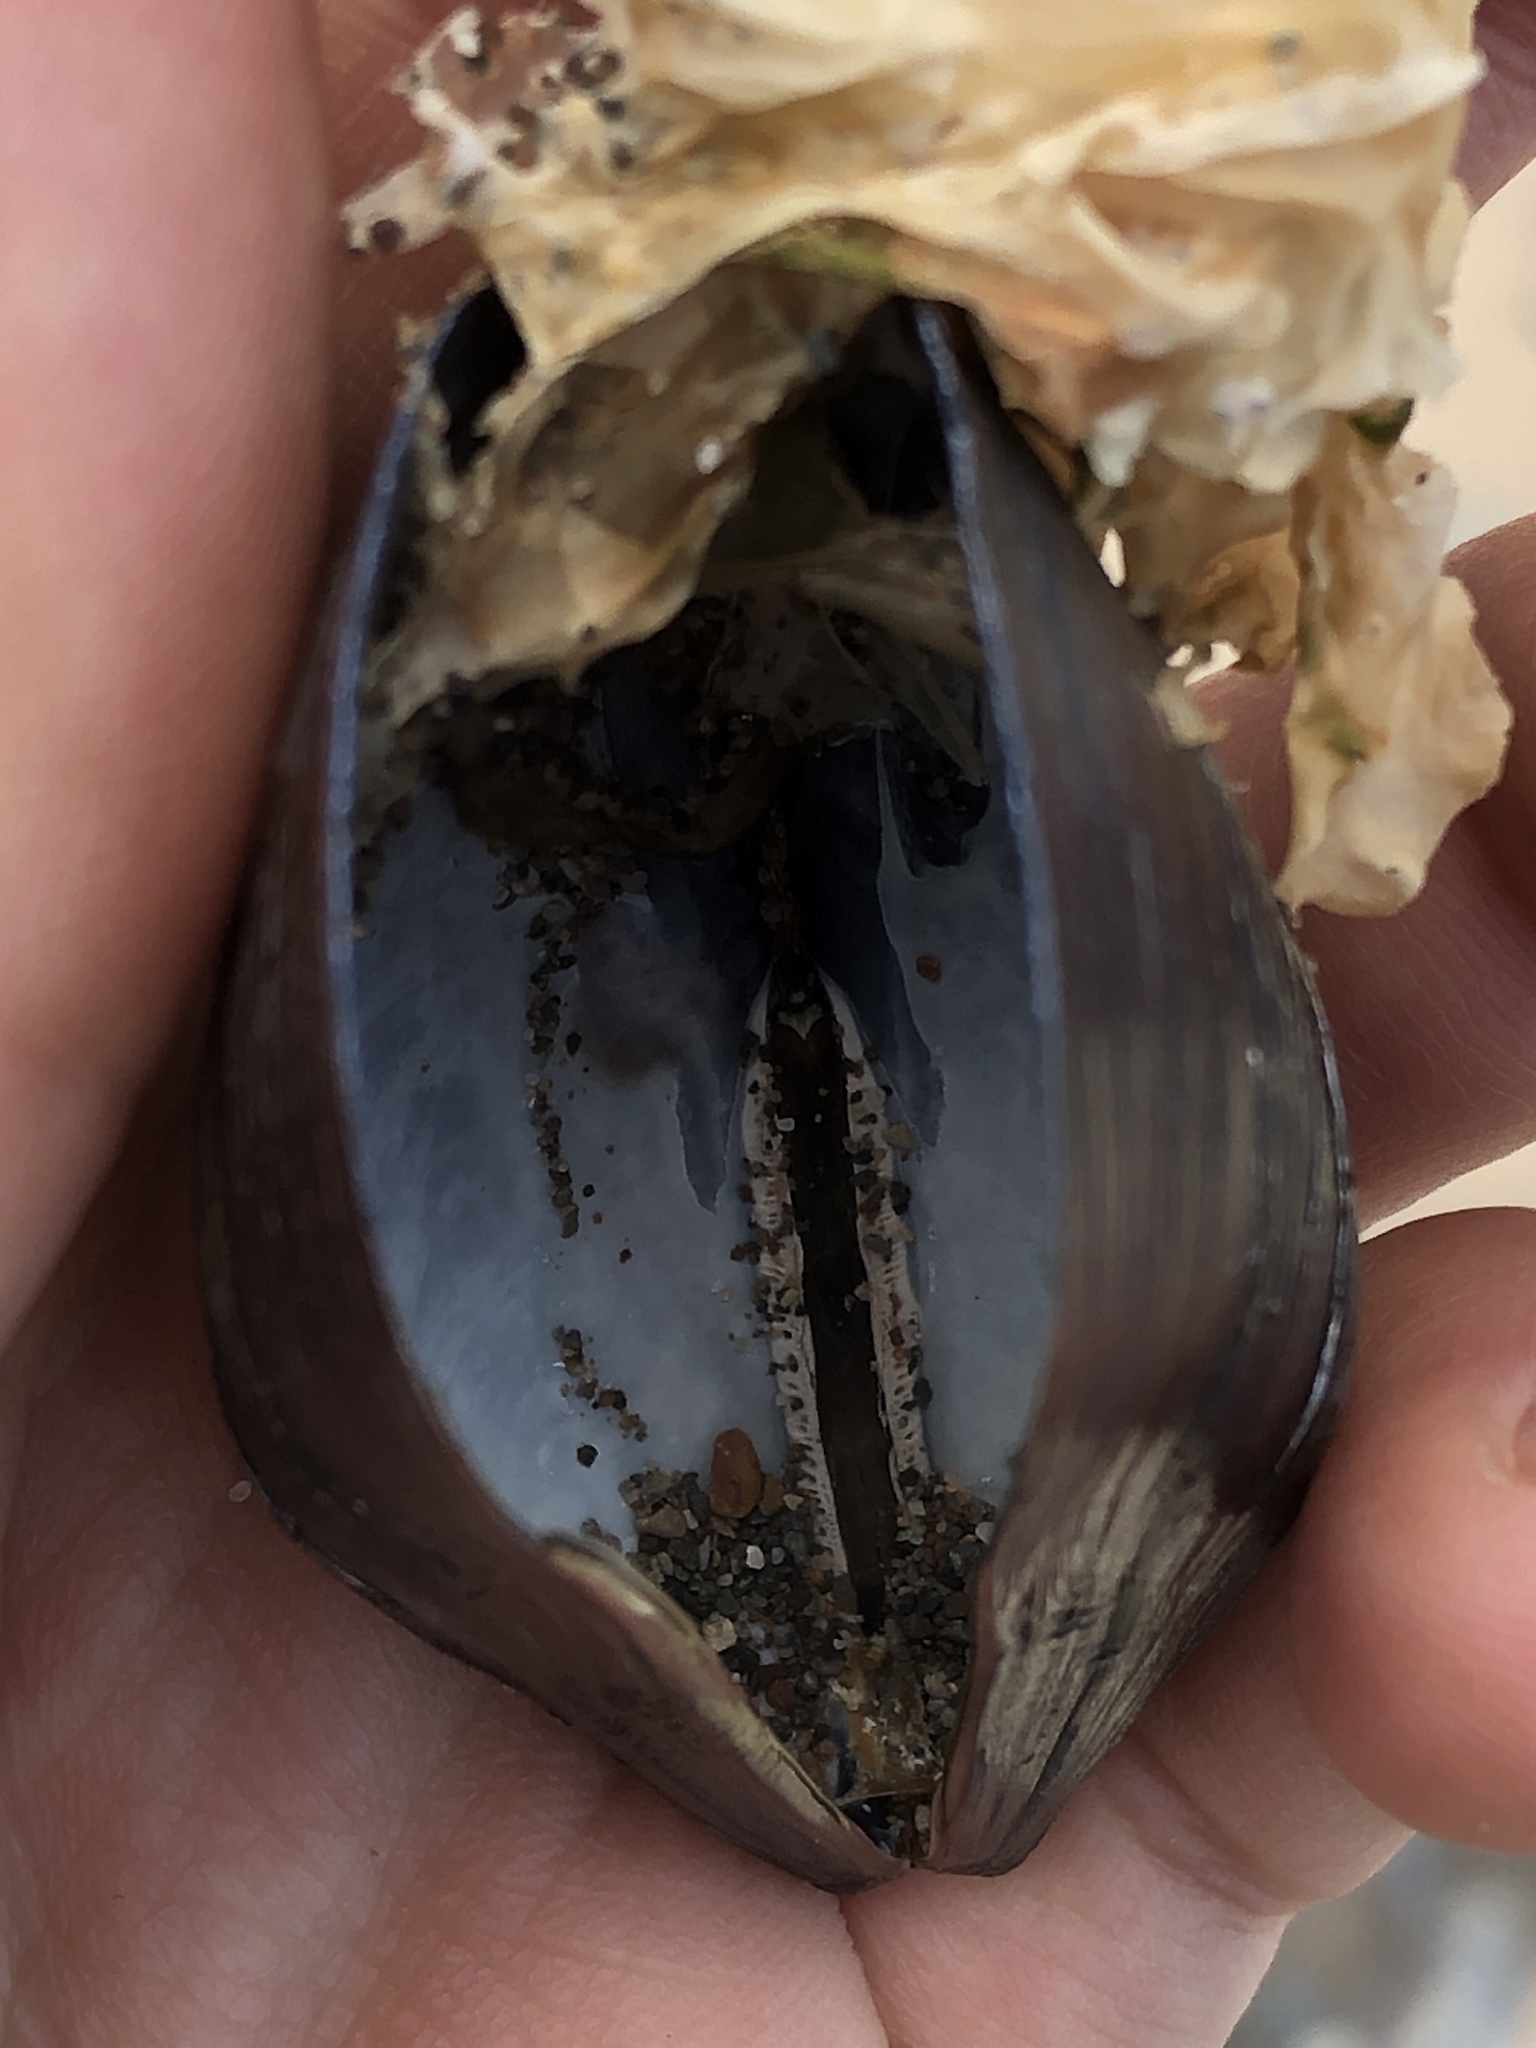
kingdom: Animalia
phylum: Mollusca
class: Bivalvia
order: Mytilida
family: Mytilidae
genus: Mytilus
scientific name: Mytilus
